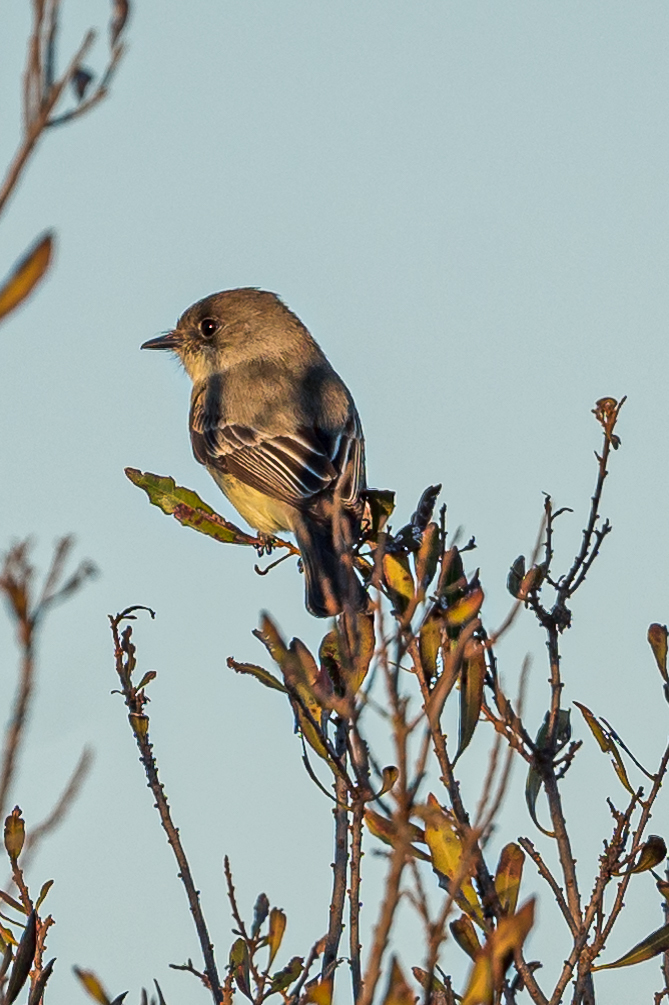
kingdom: Animalia
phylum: Chordata
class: Aves
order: Passeriformes
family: Tyrannidae
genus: Sayornis
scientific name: Sayornis phoebe
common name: Eastern phoebe
